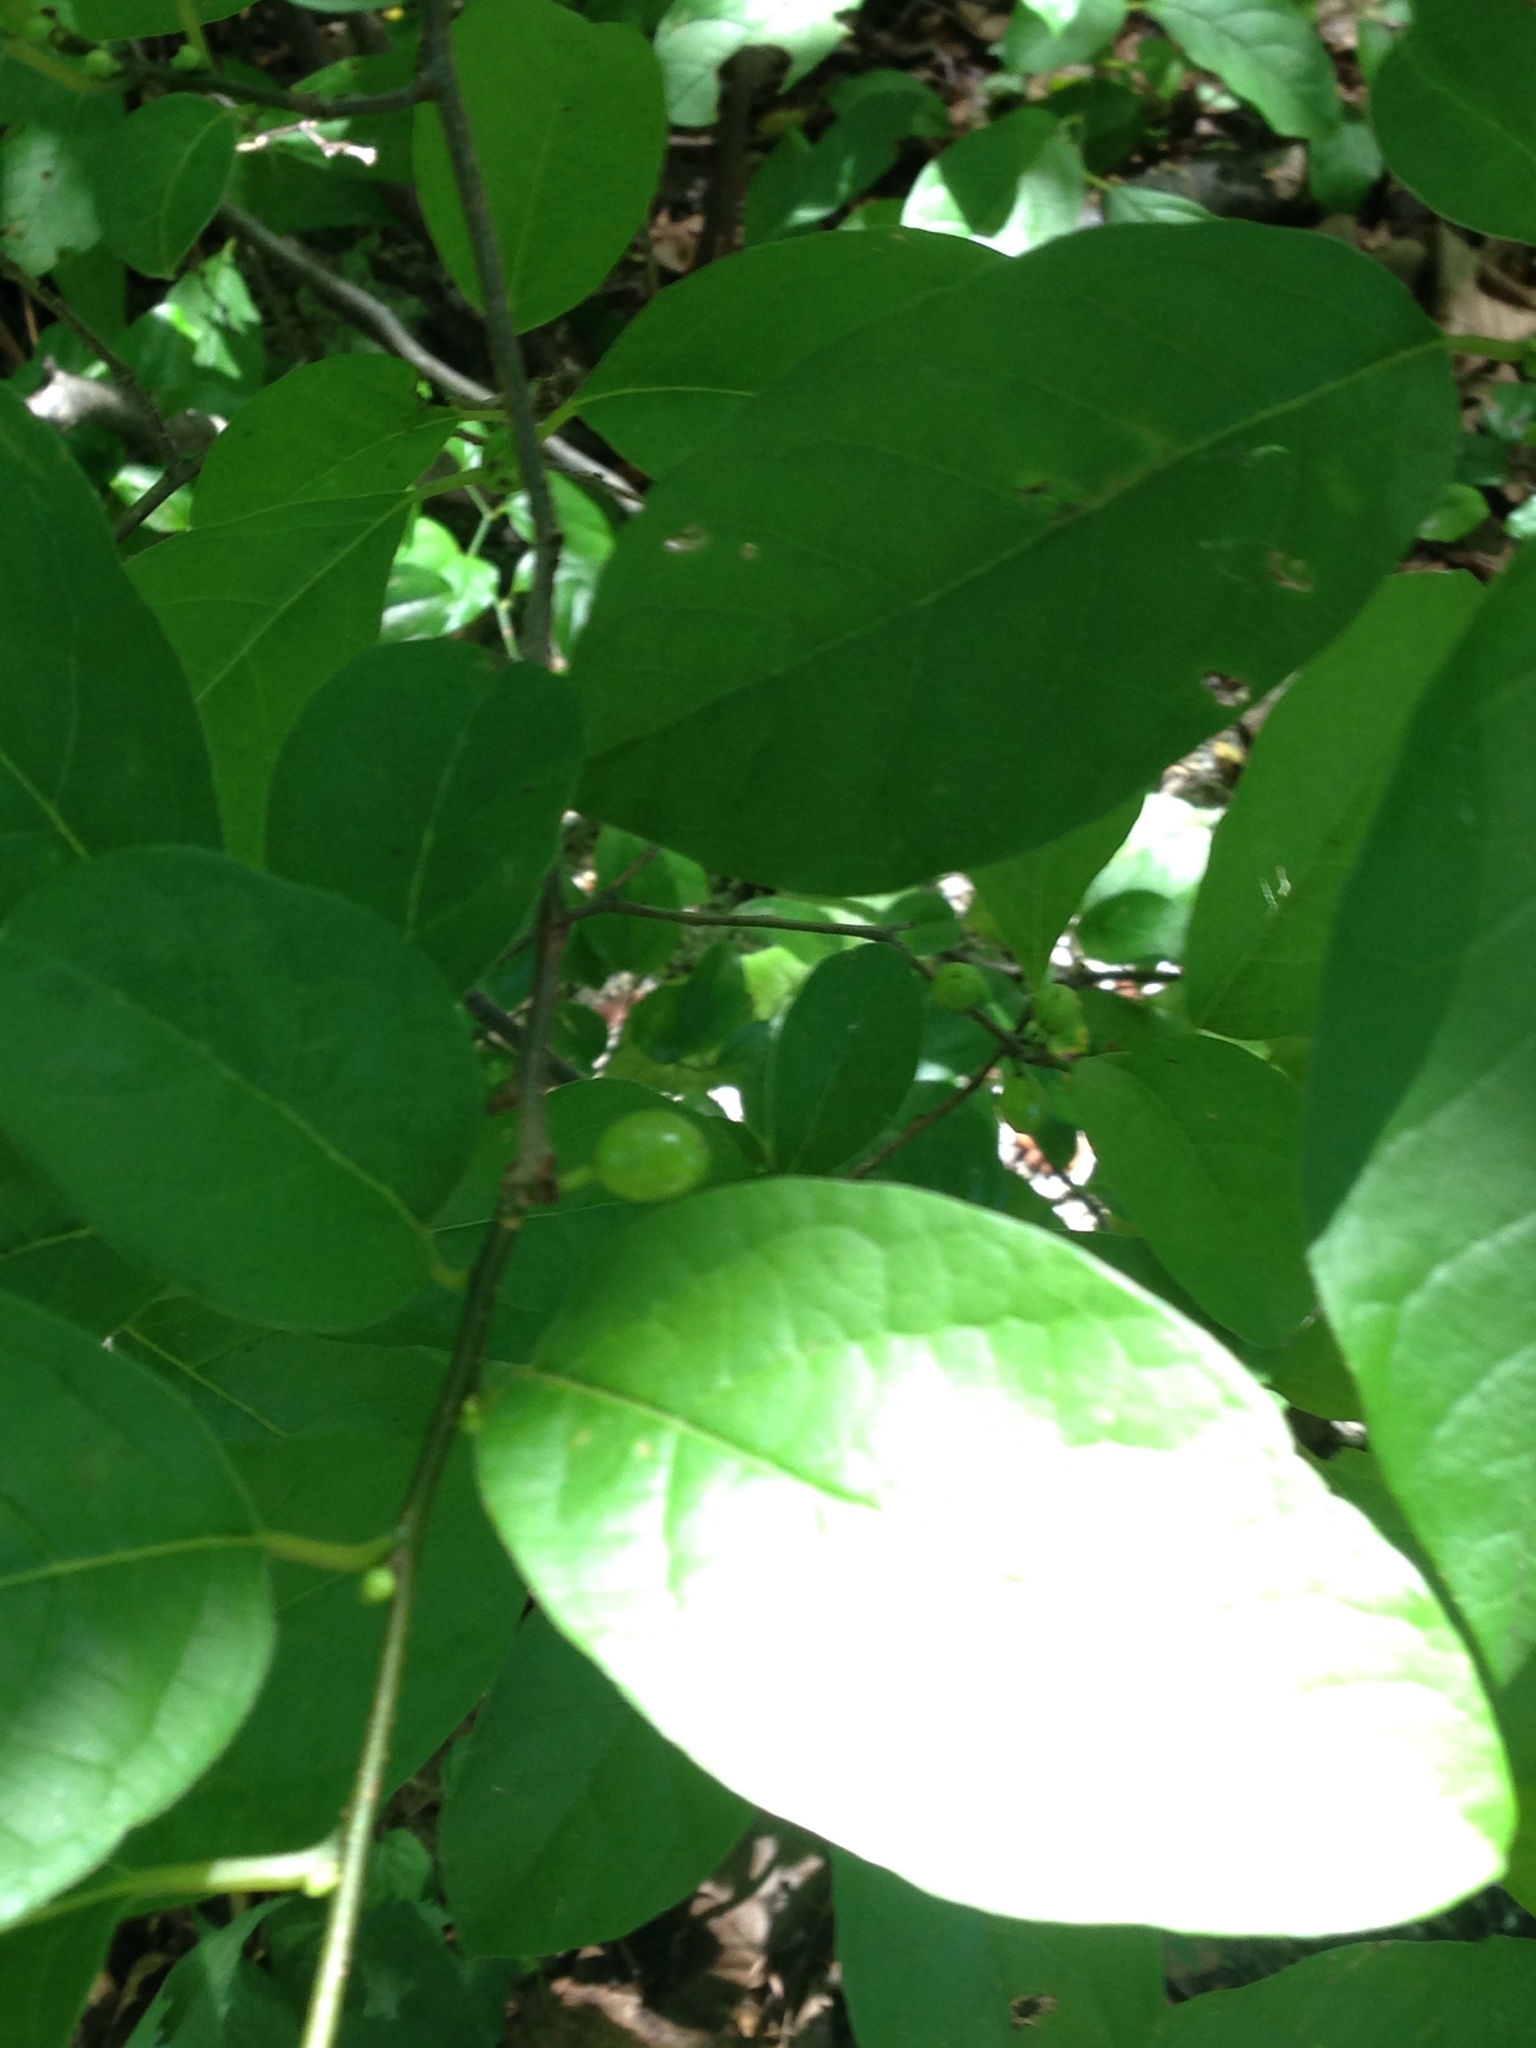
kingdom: Plantae
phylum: Tracheophyta
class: Magnoliopsida
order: Laurales
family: Lauraceae
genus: Lindera
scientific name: Lindera benzoin
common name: Spicebush
